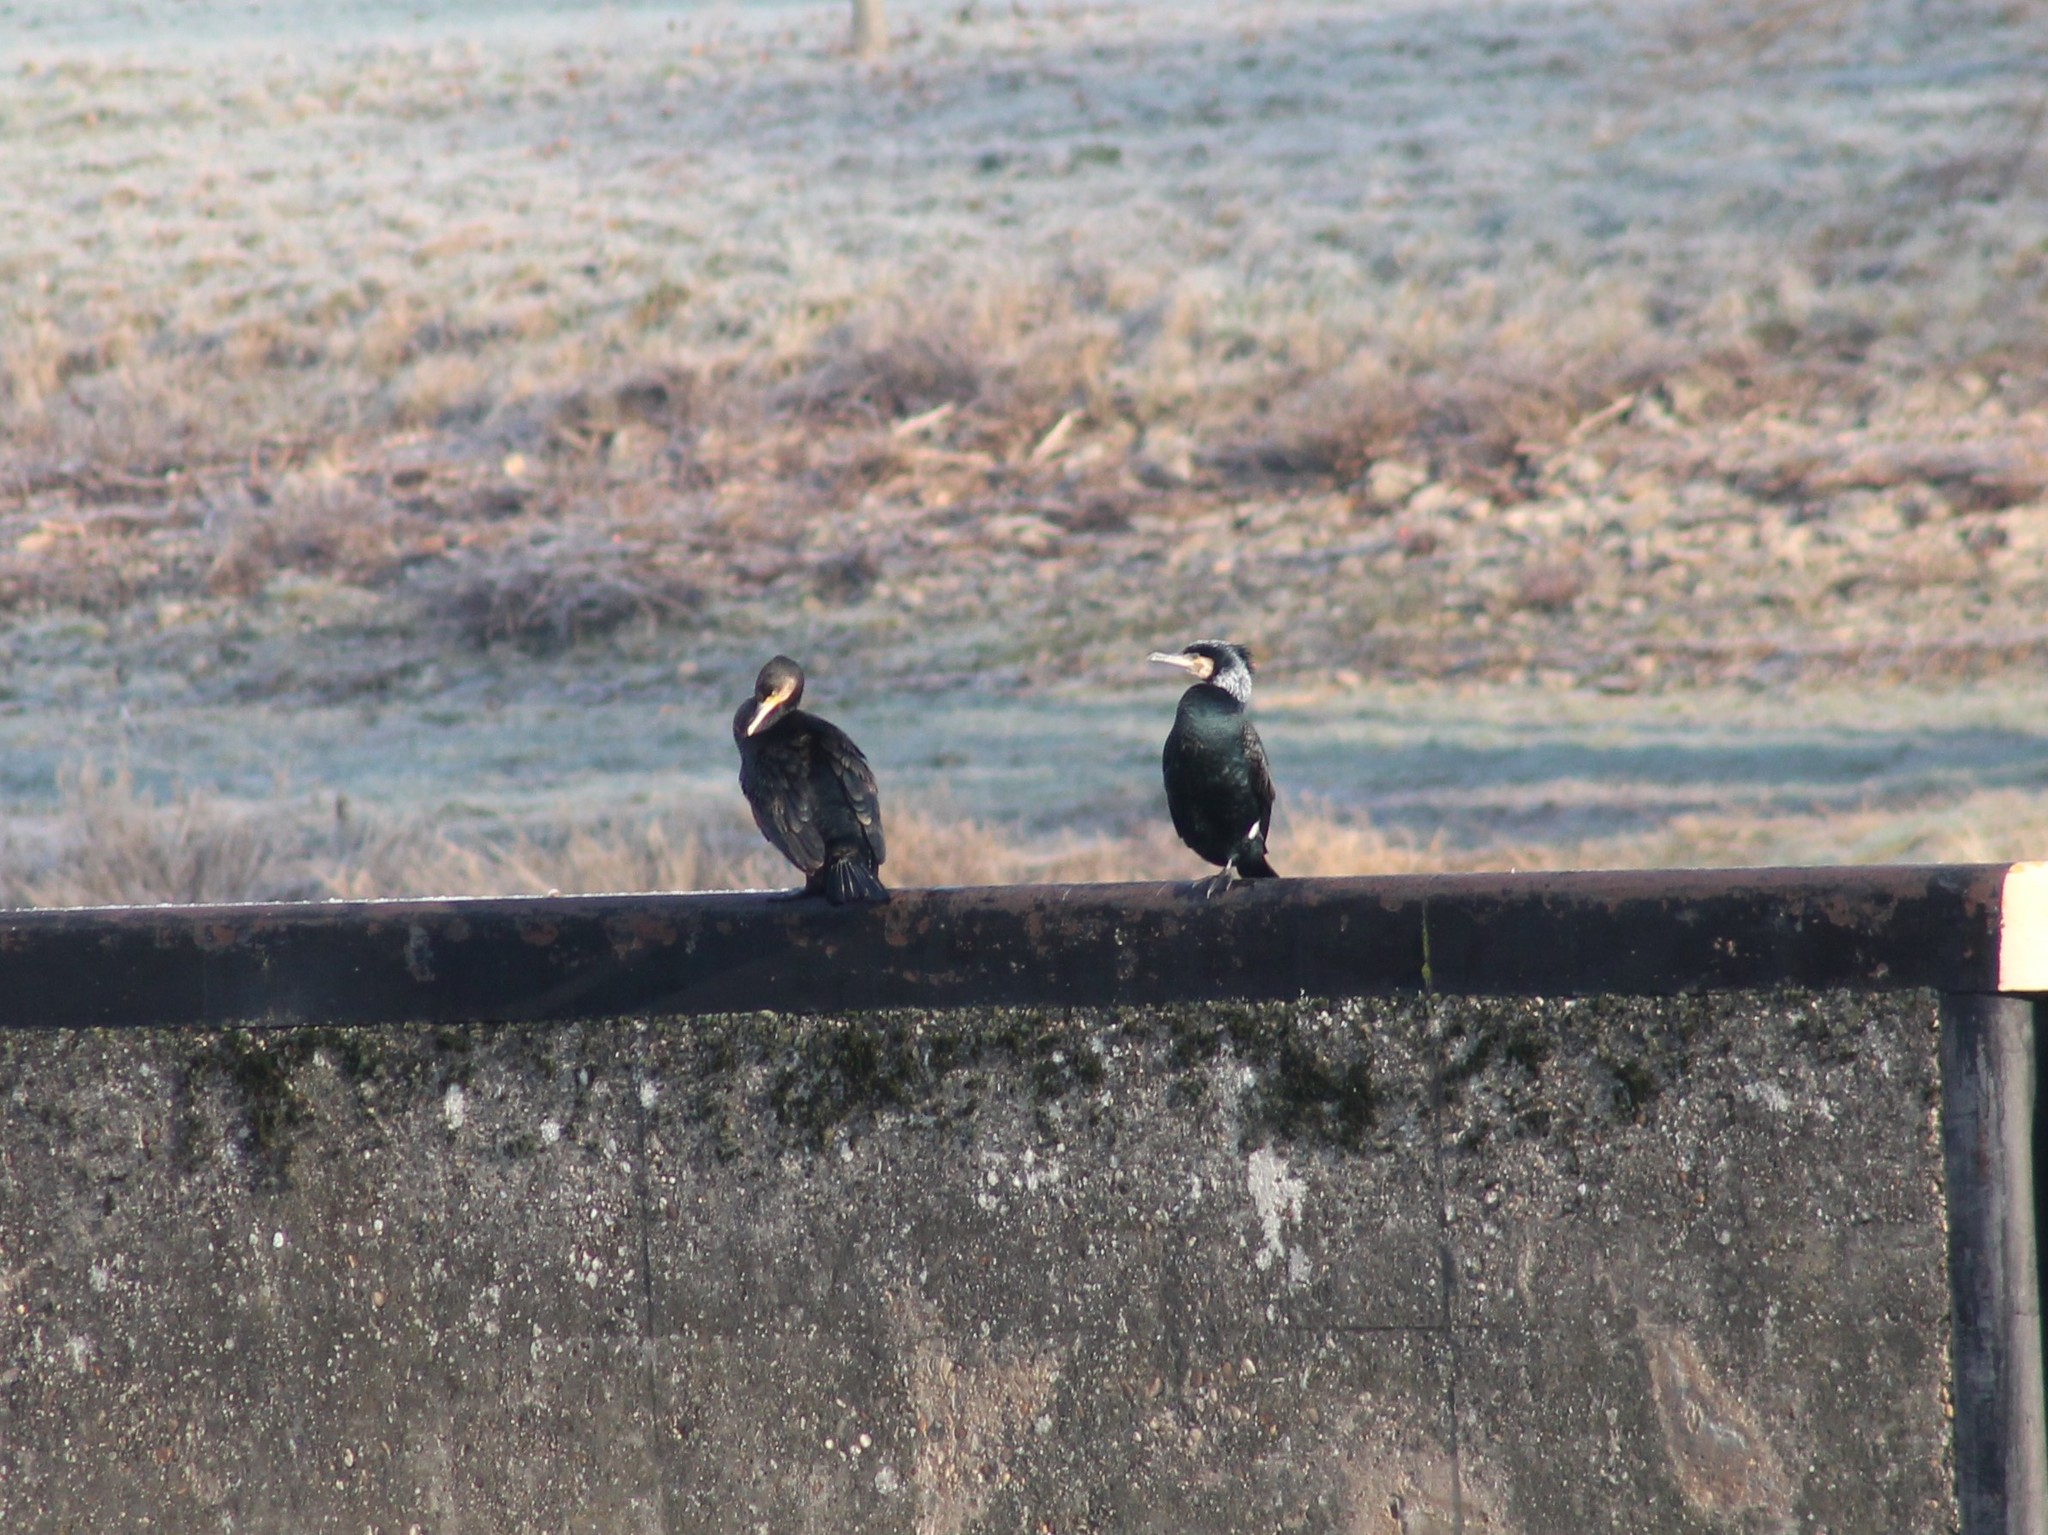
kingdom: Animalia
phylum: Chordata
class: Aves
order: Suliformes
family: Phalacrocoracidae
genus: Phalacrocorax
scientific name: Phalacrocorax carbo
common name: Great cormorant
